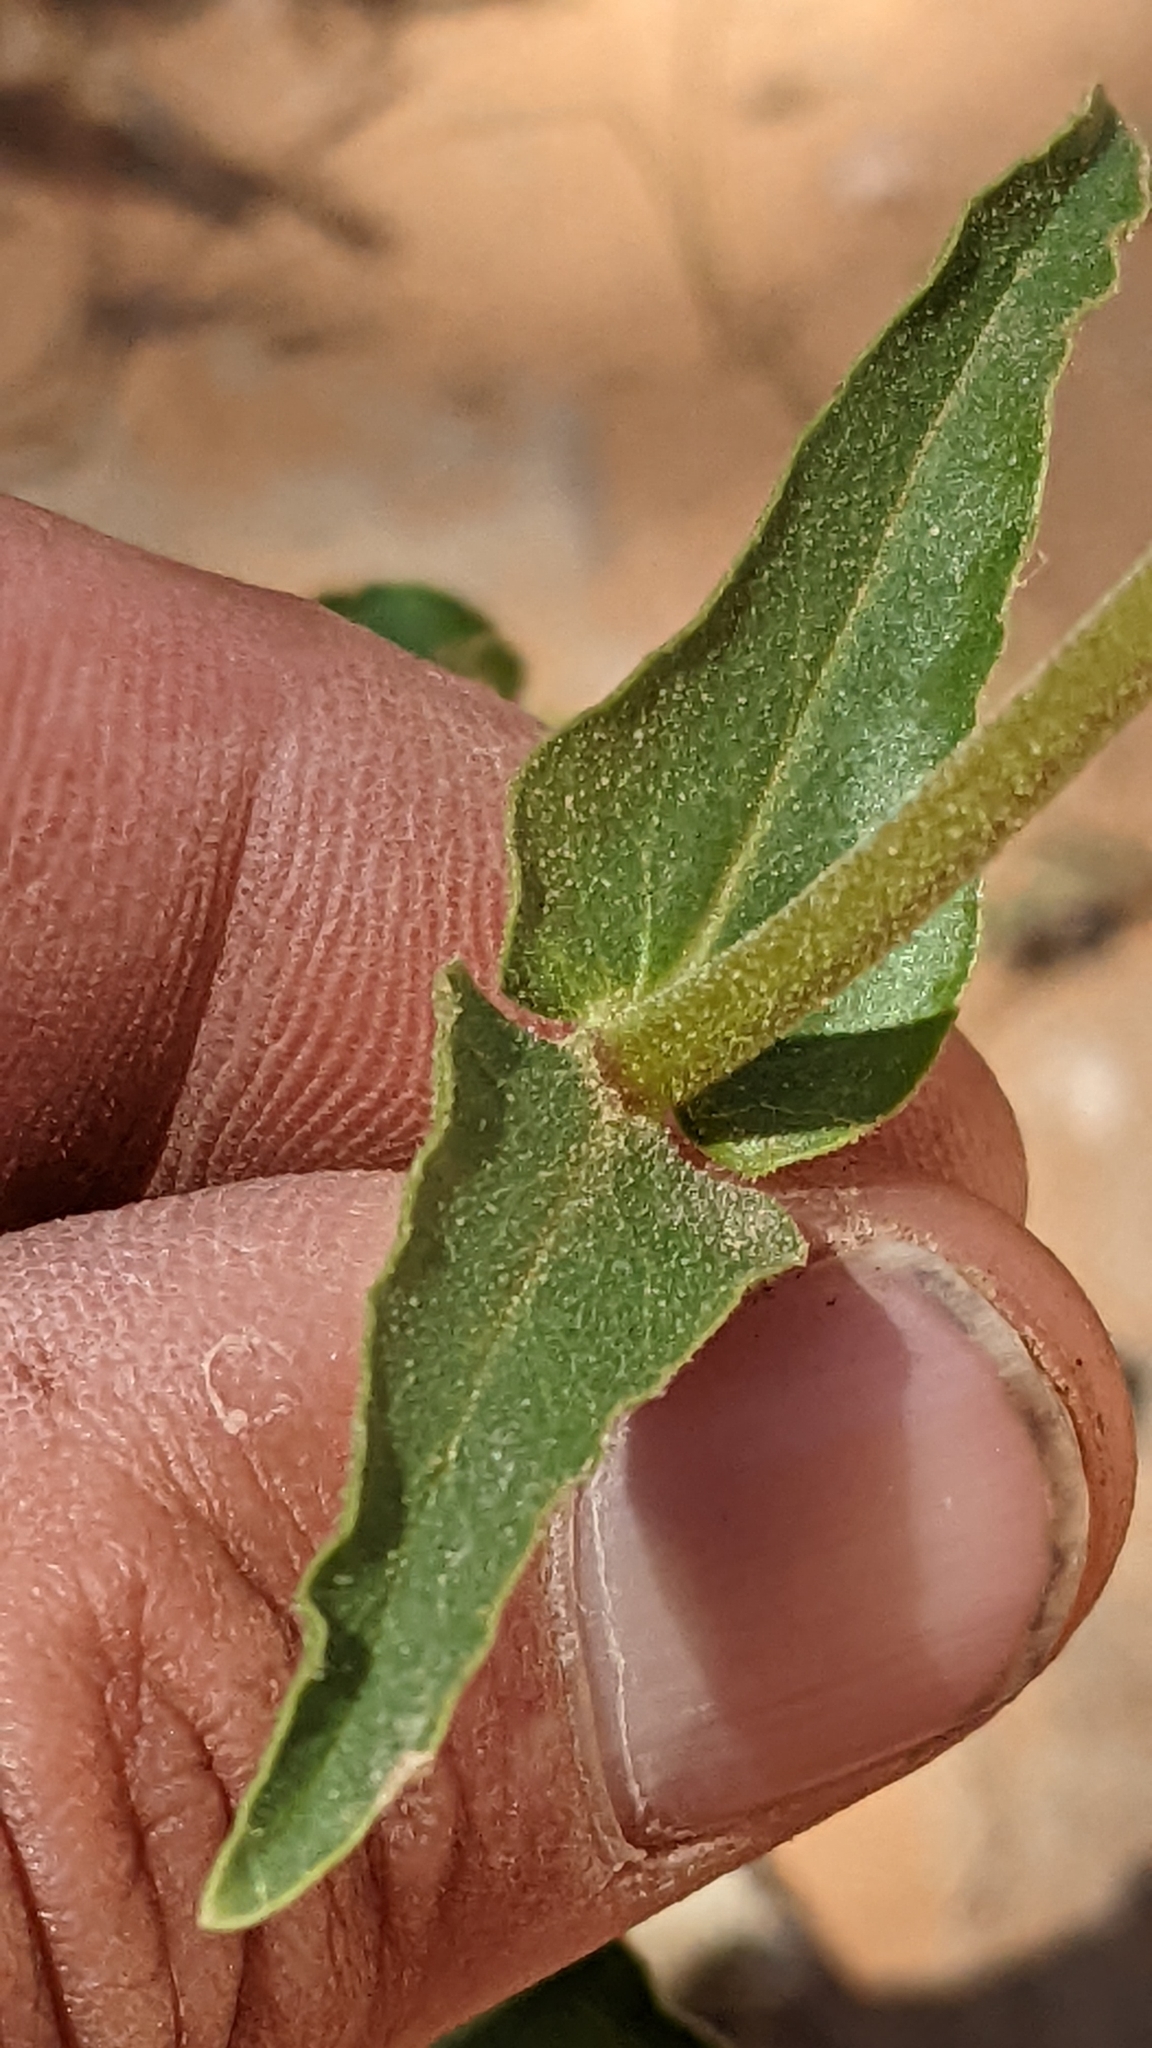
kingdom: Plantae
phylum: Tracheophyta
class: Magnoliopsida
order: Lamiales
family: Plantaginaceae
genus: Penstemon
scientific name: Penstemon eatonii
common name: Eaton's penstemon
